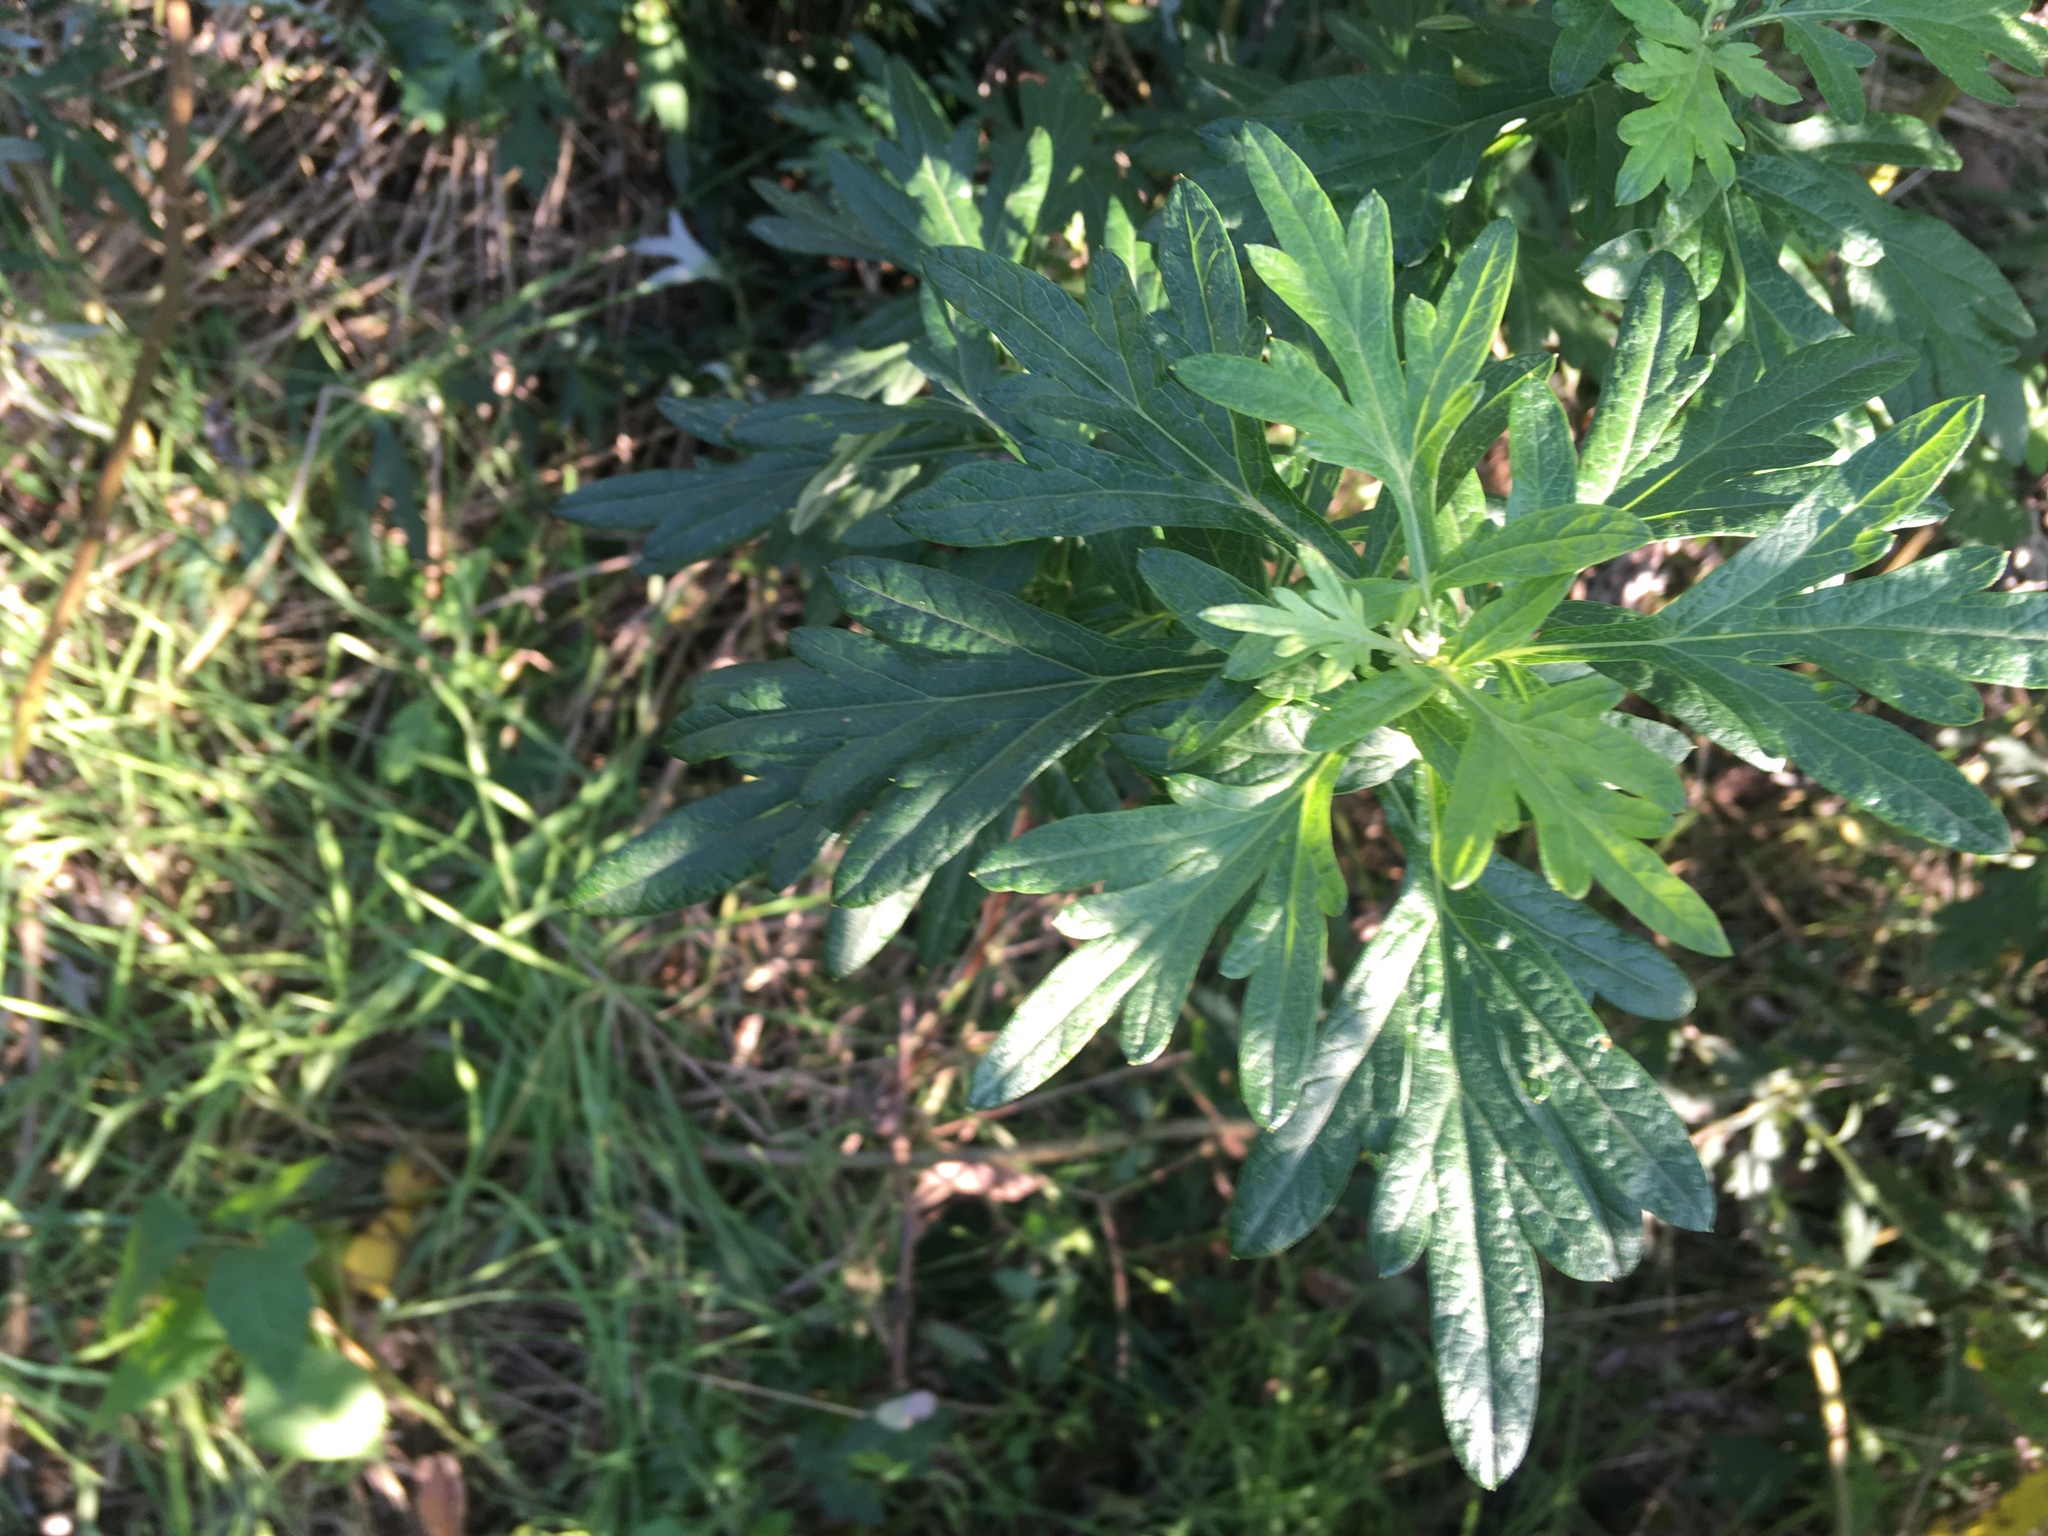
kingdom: Plantae
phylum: Tracheophyta
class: Magnoliopsida
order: Asterales
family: Asteraceae
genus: Artemisia
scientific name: Artemisia vulgaris
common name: Mugwort
